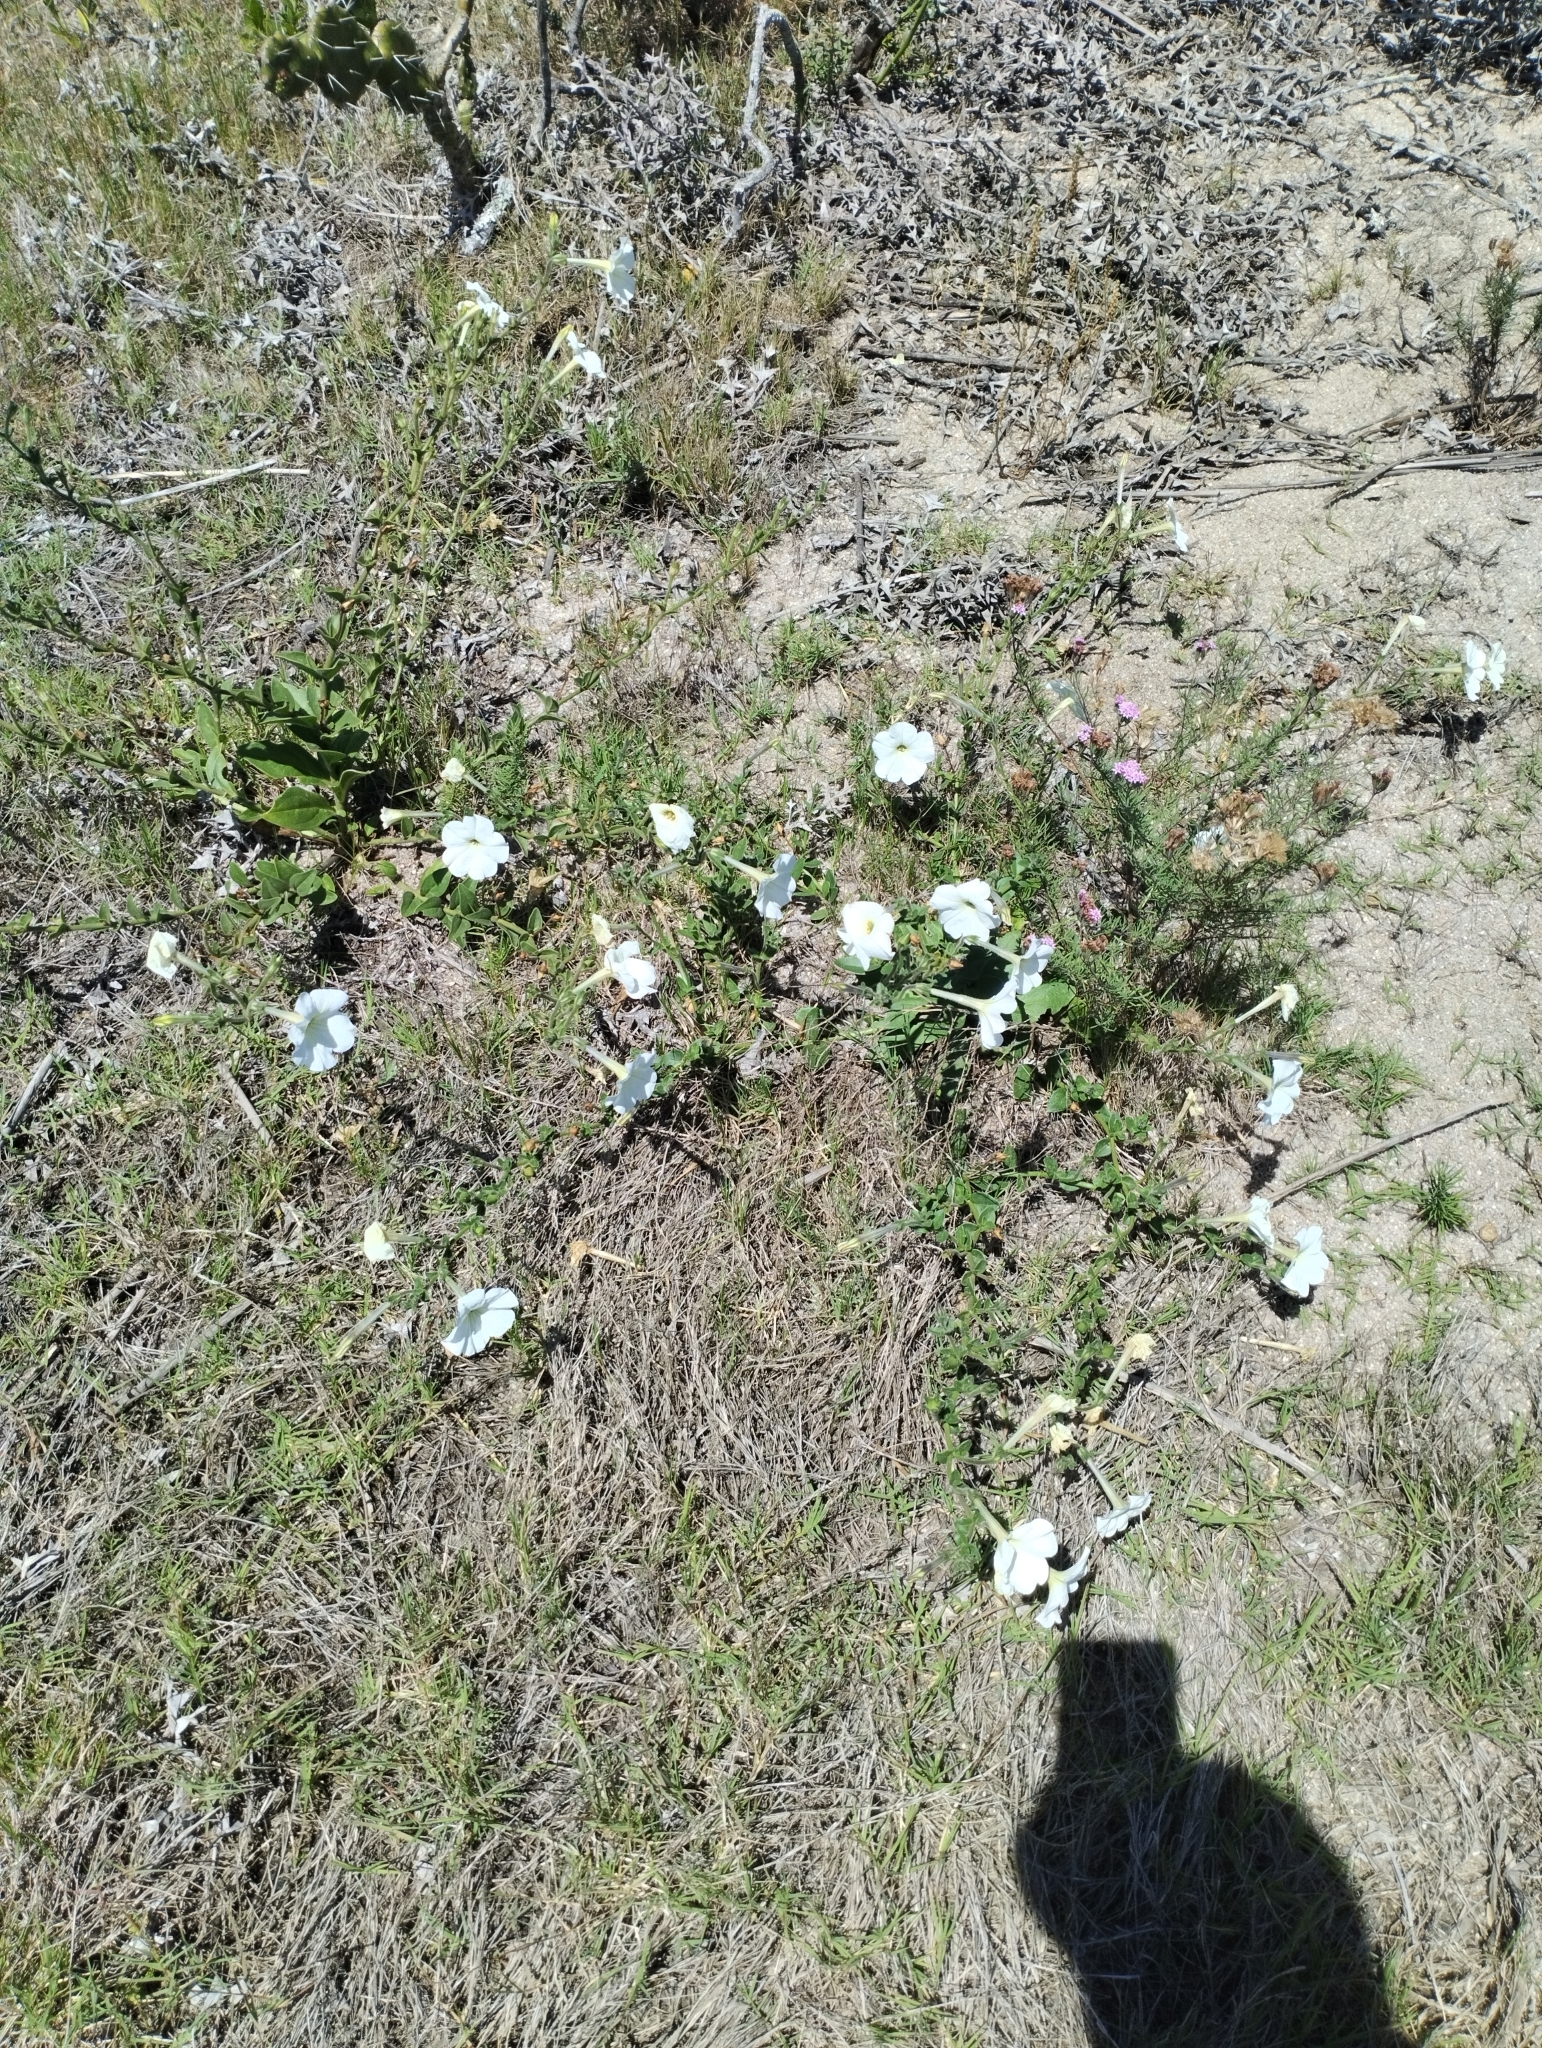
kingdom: Plantae
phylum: Tracheophyta
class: Magnoliopsida
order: Solanales
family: Solanaceae
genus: Petunia
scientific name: Petunia axillaris
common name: Large white petunia
